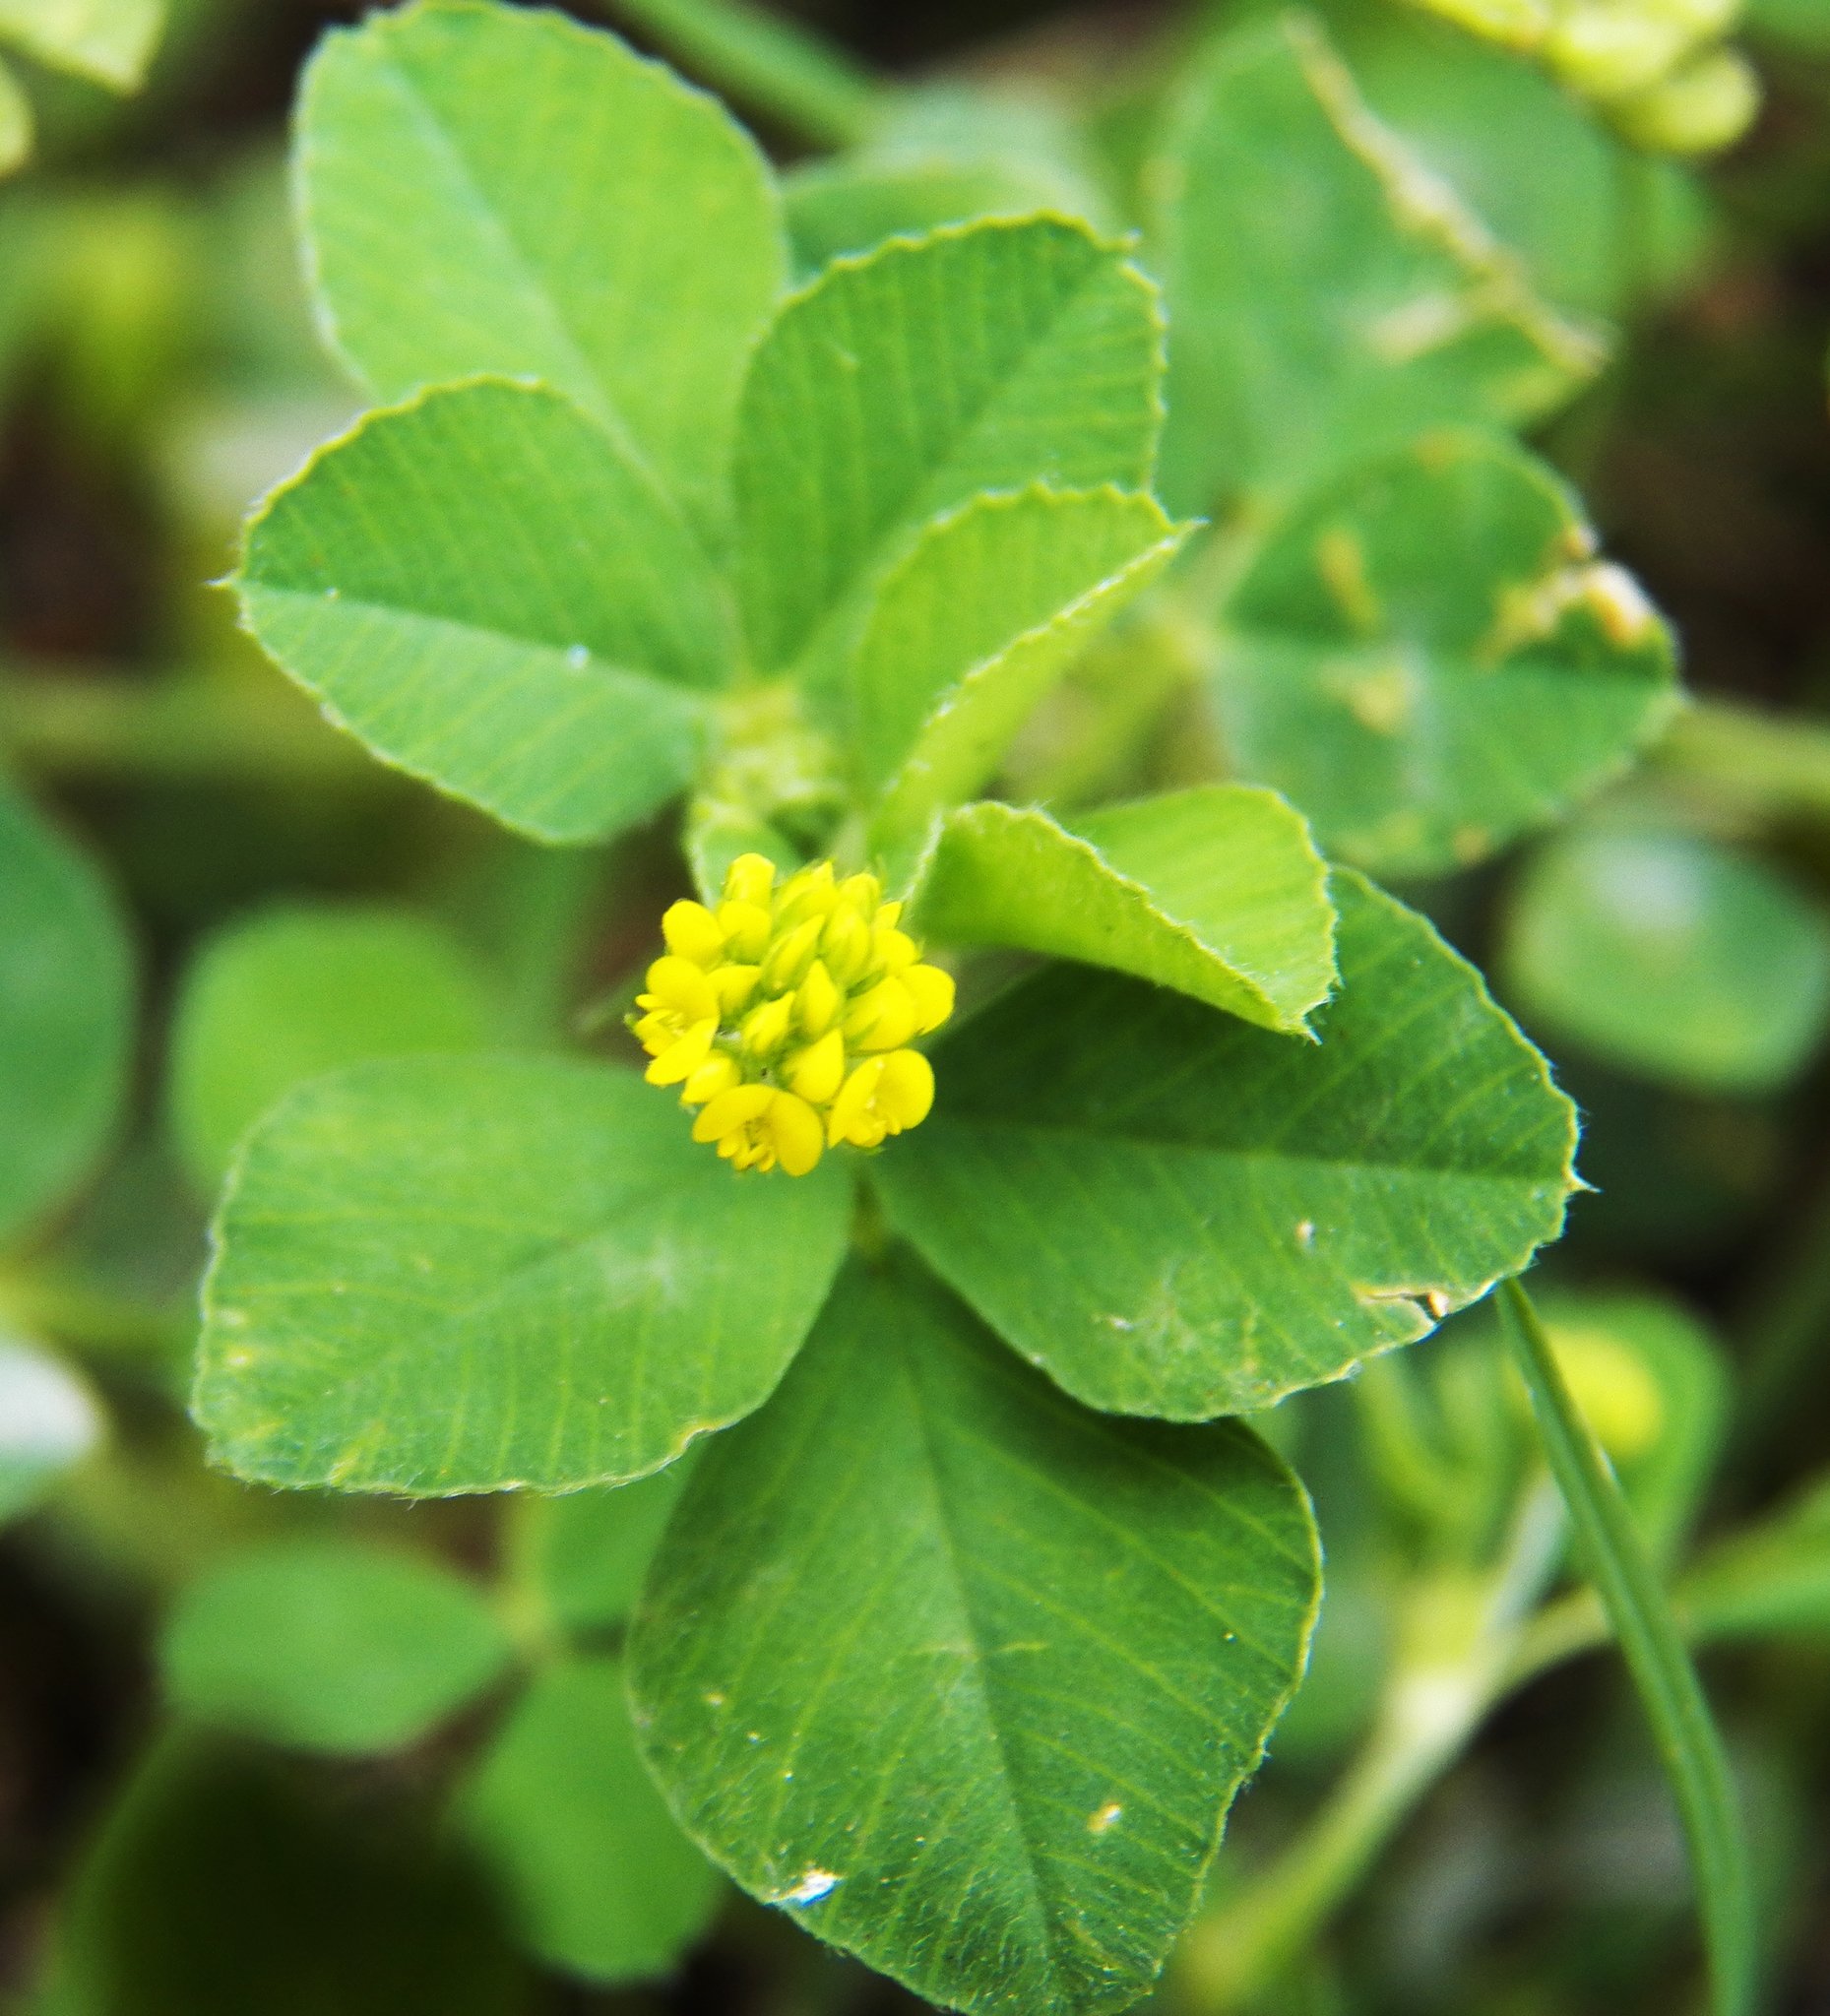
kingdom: Plantae
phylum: Tracheophyta
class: Magnoliopsida
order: Fabales
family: Fabaceae
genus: Medicago
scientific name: Medicago lupulina
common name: Black medick
